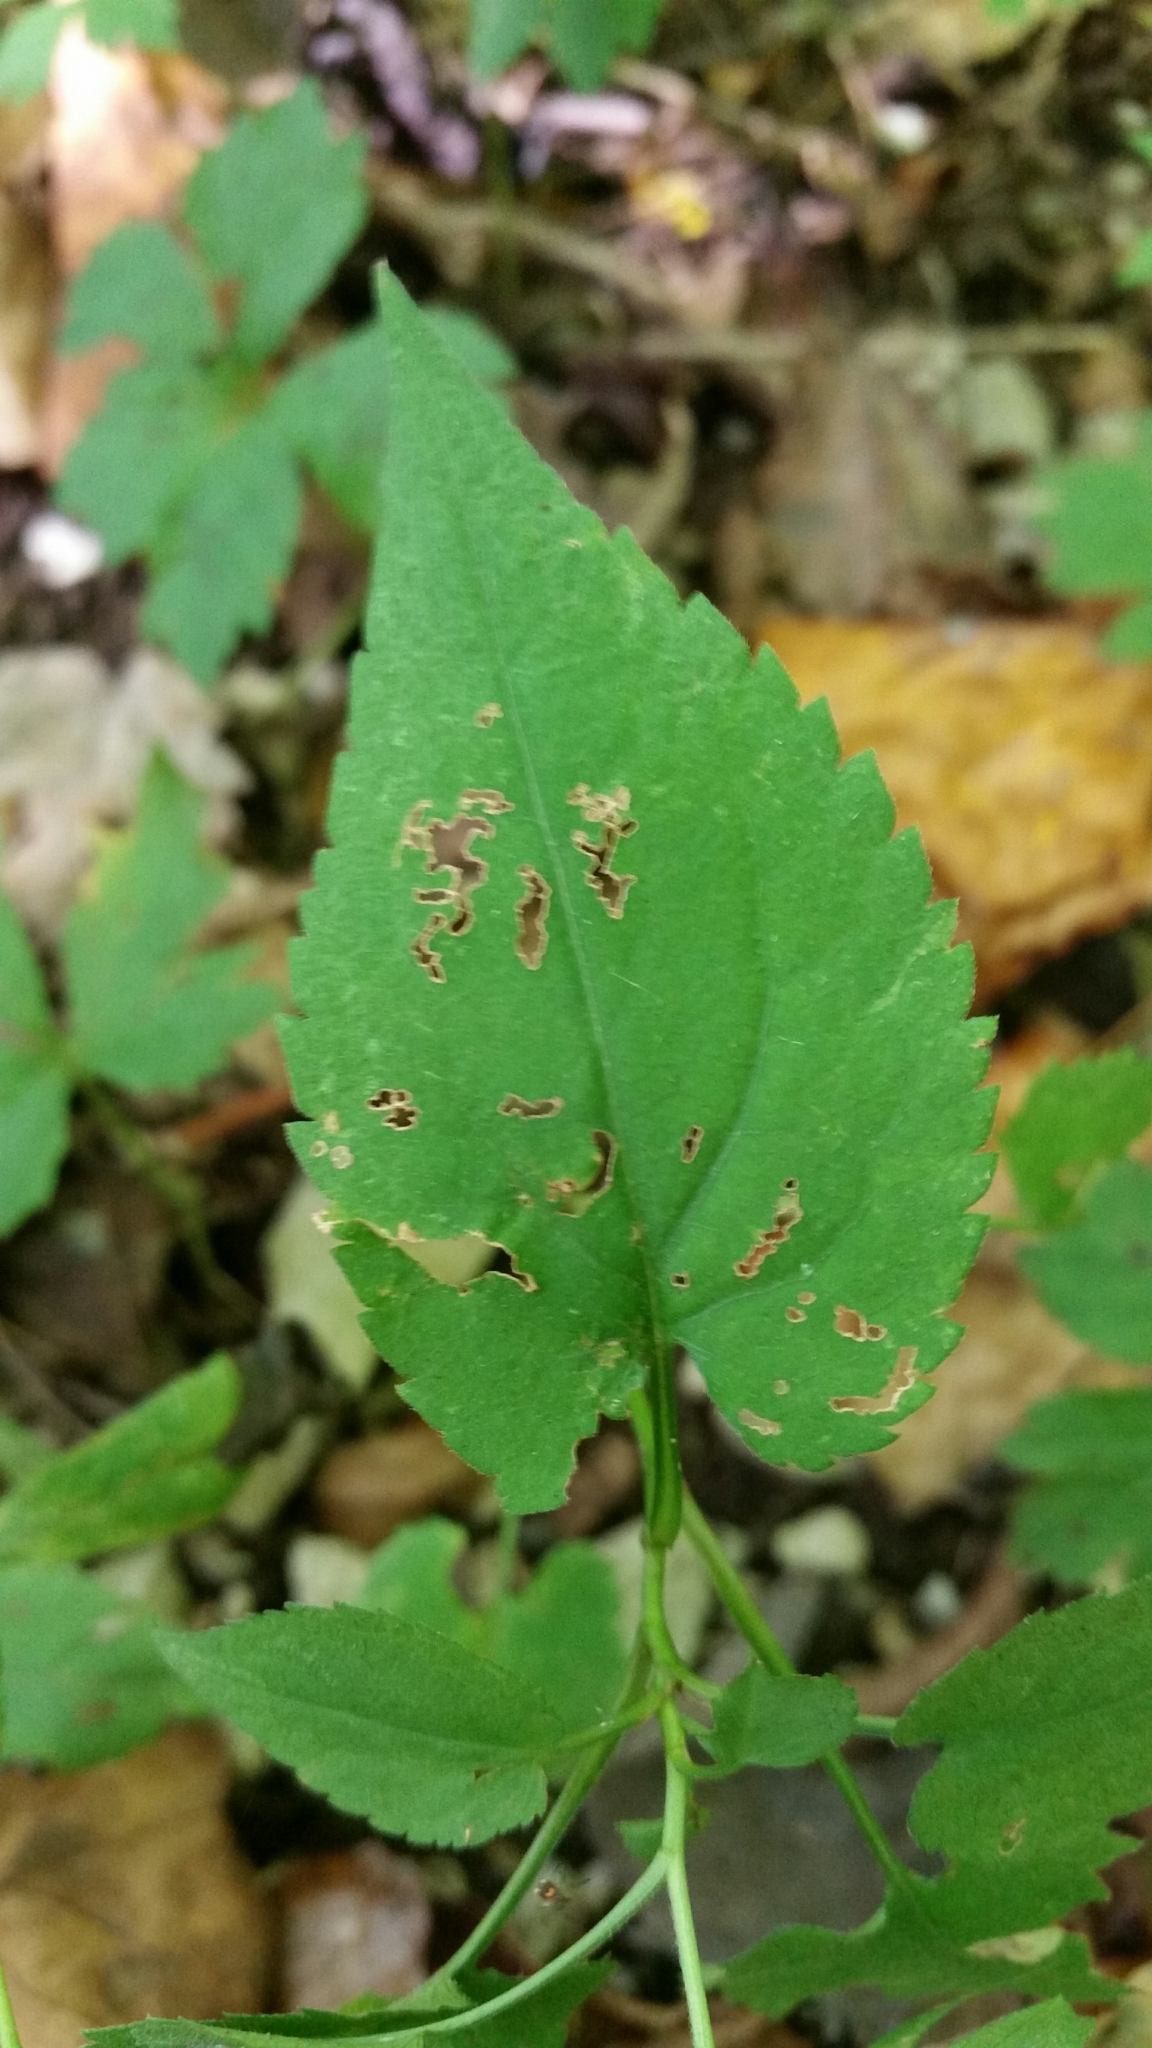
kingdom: Plantae
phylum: Tracheophyta
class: Magnoliopsida
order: Asterales
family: Asteraceae
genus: Symphyotrichum
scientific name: Symphyotrichum cordifolium
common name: Beeweed
